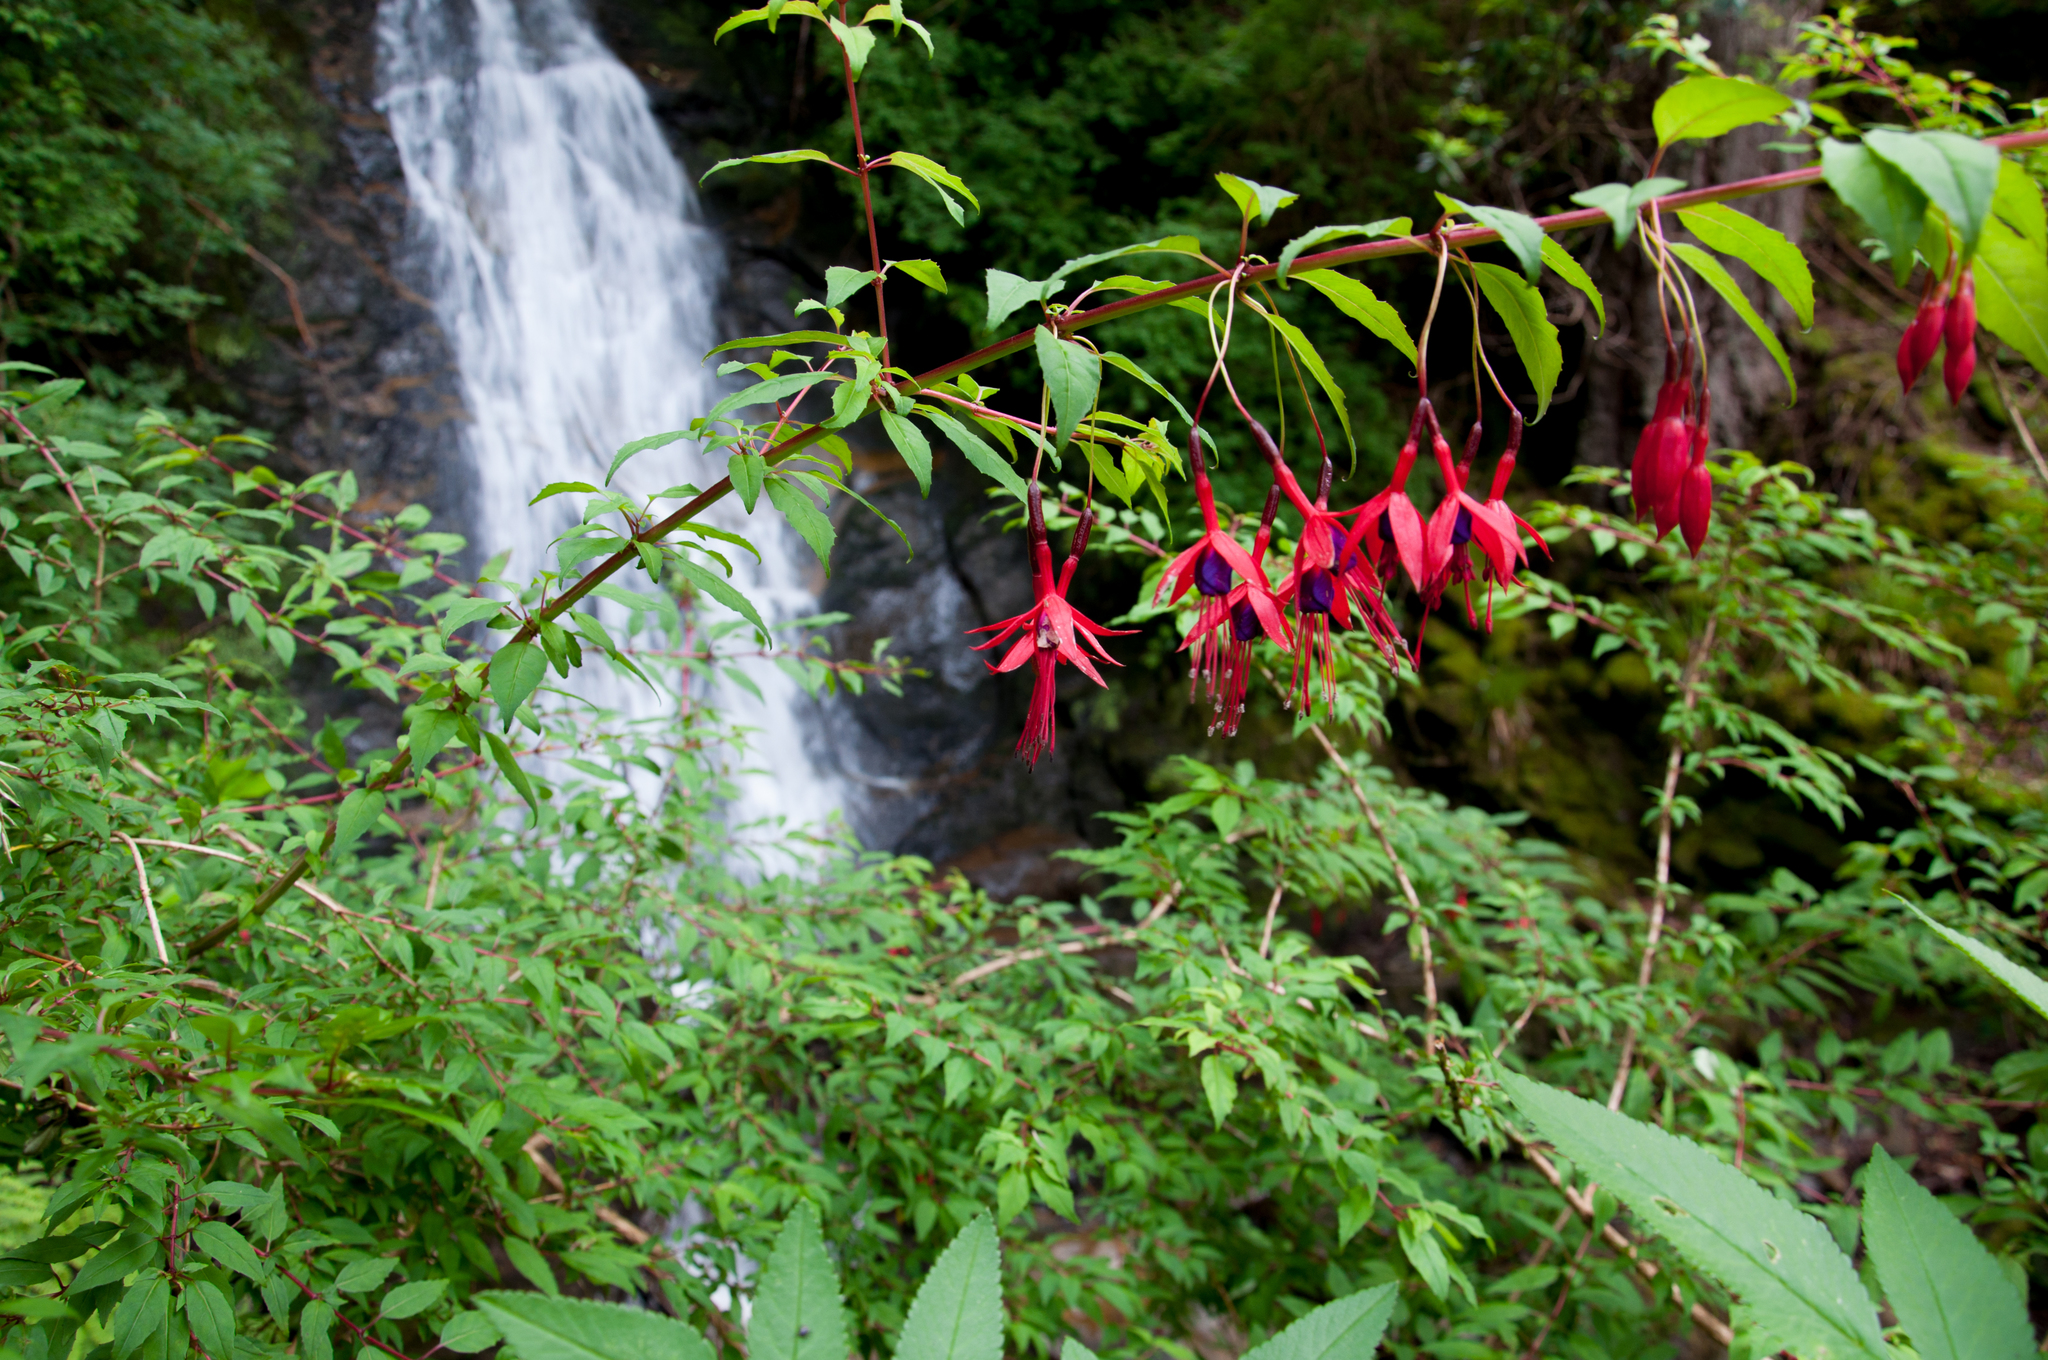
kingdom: Plantae
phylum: Tracheophyta
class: Magnoliopsida
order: Myrtales
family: Onagraceae
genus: Fuchsia
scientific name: Fuchsia magellanica
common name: Hardy fuchsia
